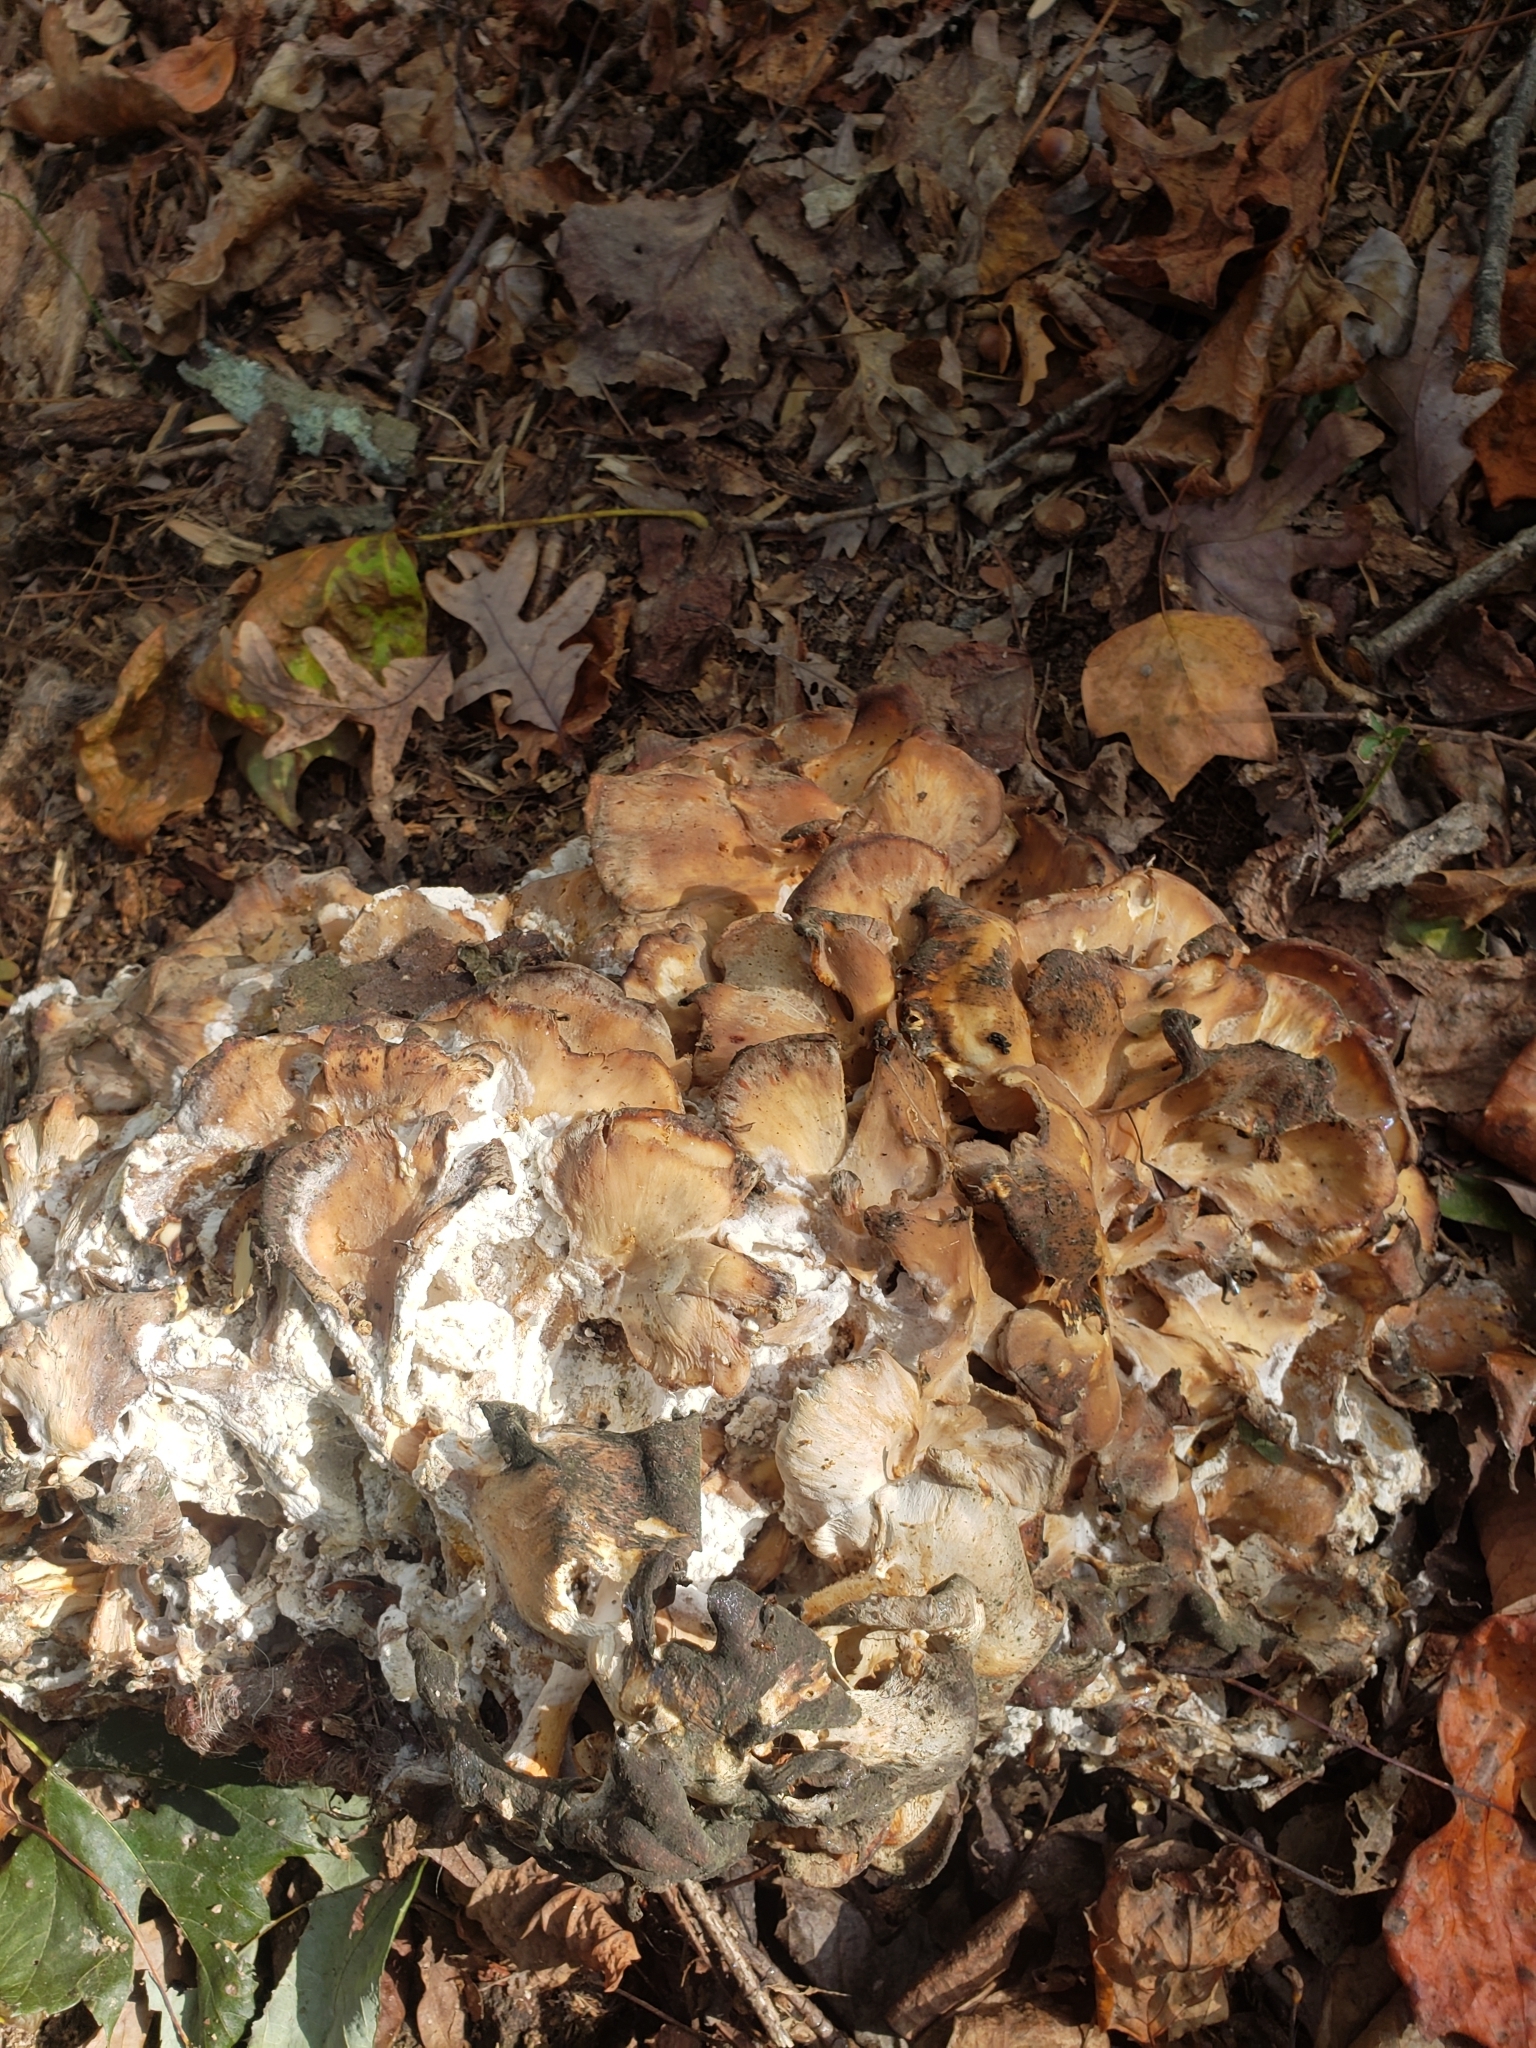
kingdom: Fungi
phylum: Basidiomycota
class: Agaricomycetes
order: Polyporales
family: Grifolaceae
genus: Grifola
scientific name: Grifola frondosa
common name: Hen of the woods
